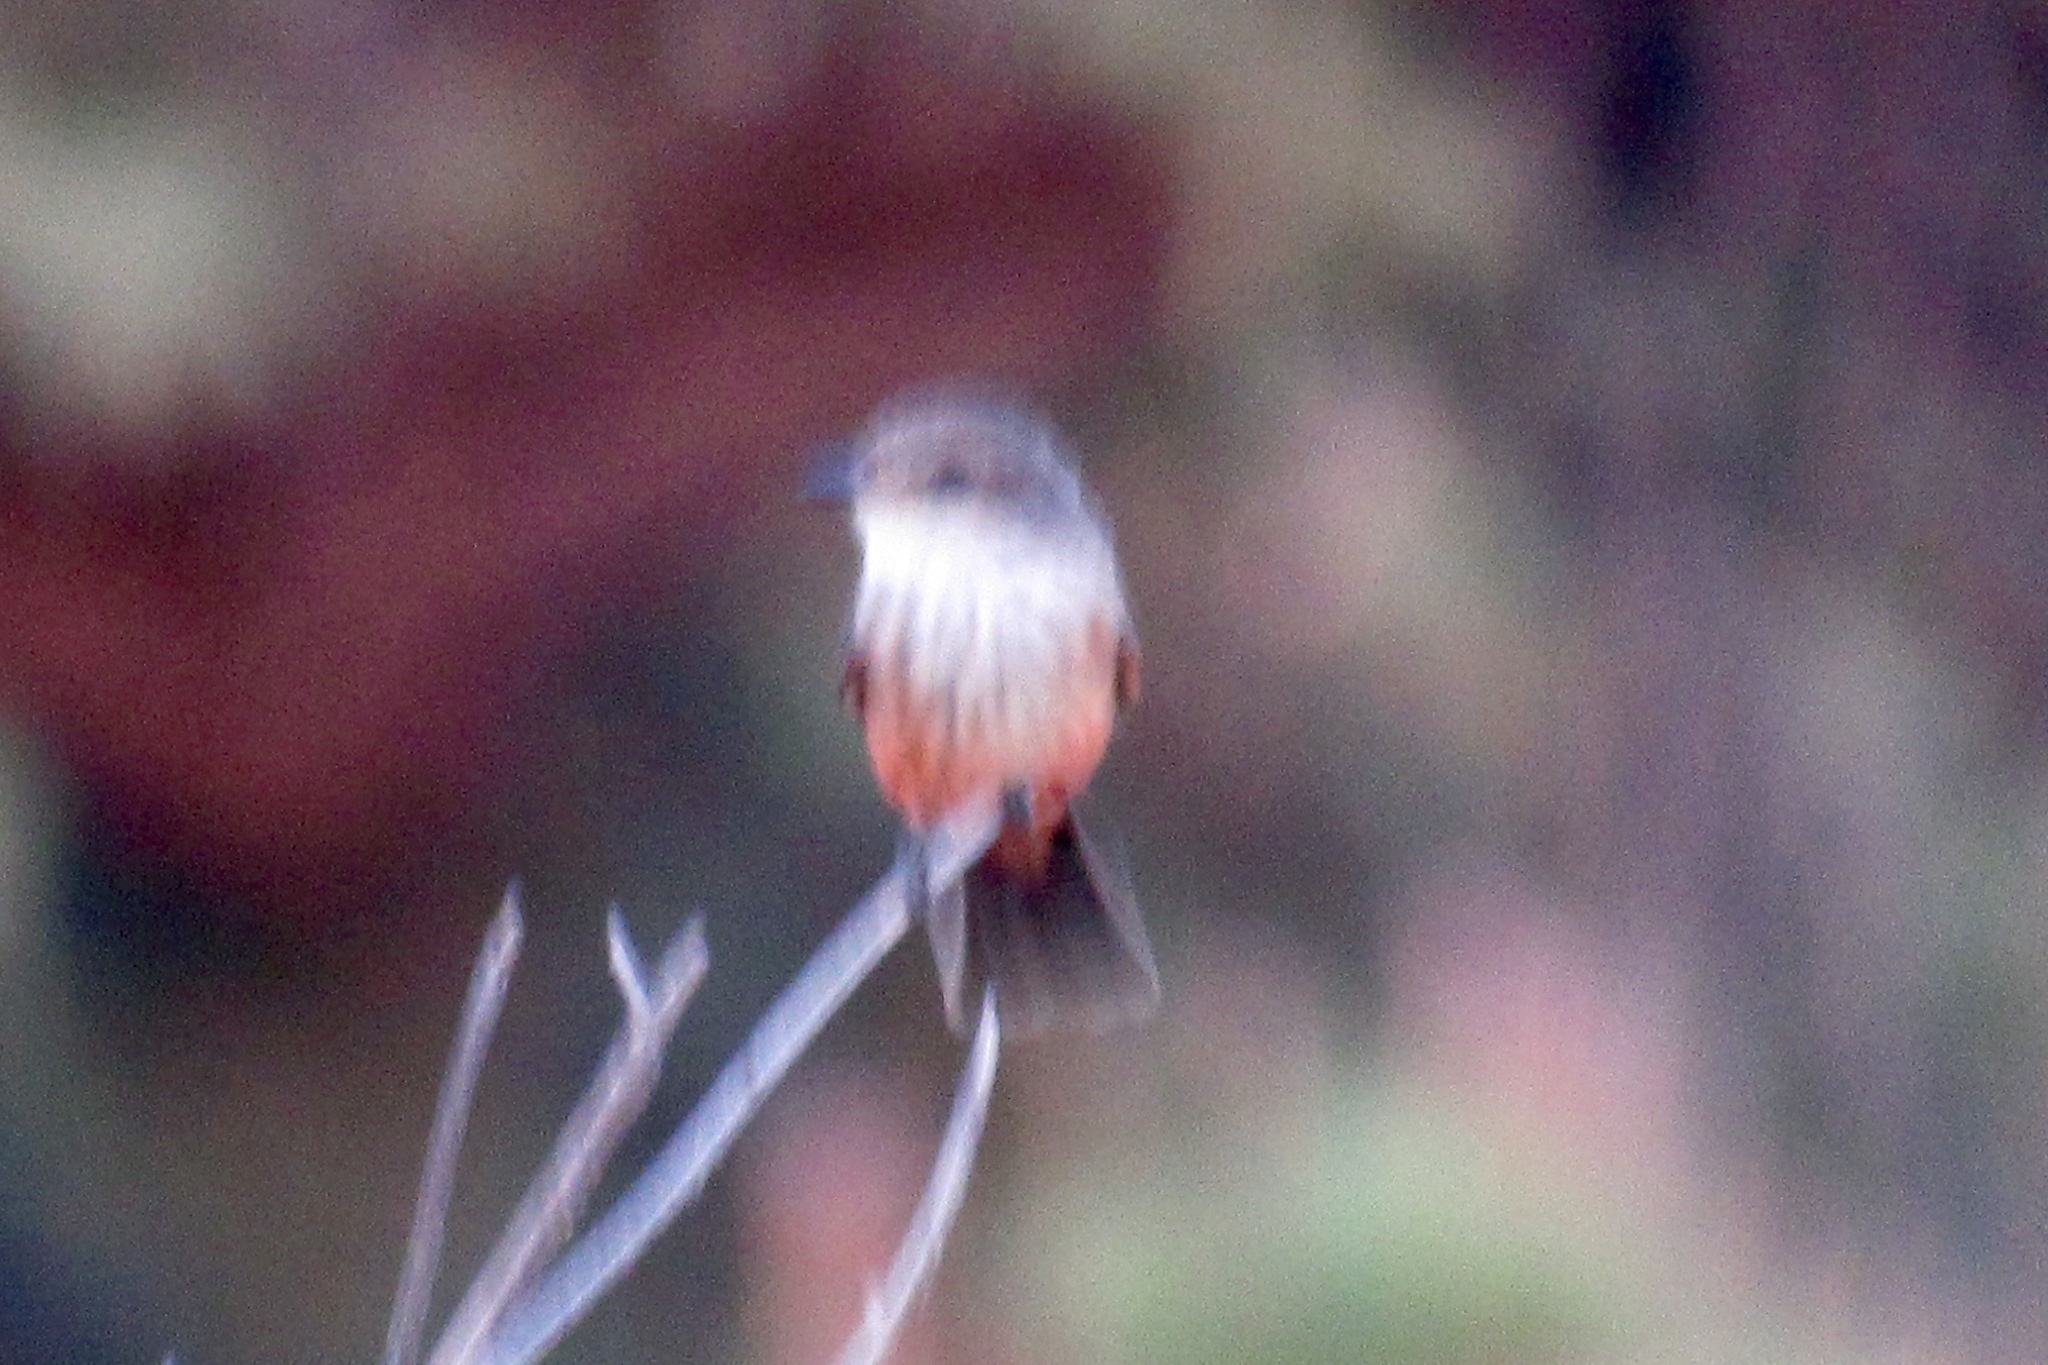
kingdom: Animalia
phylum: Chordata
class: Aves
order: Passeriformes
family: Tyrannidae
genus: Pyrocephalus
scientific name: Pyrocephalus rubinus
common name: Vermilion flycatcher
